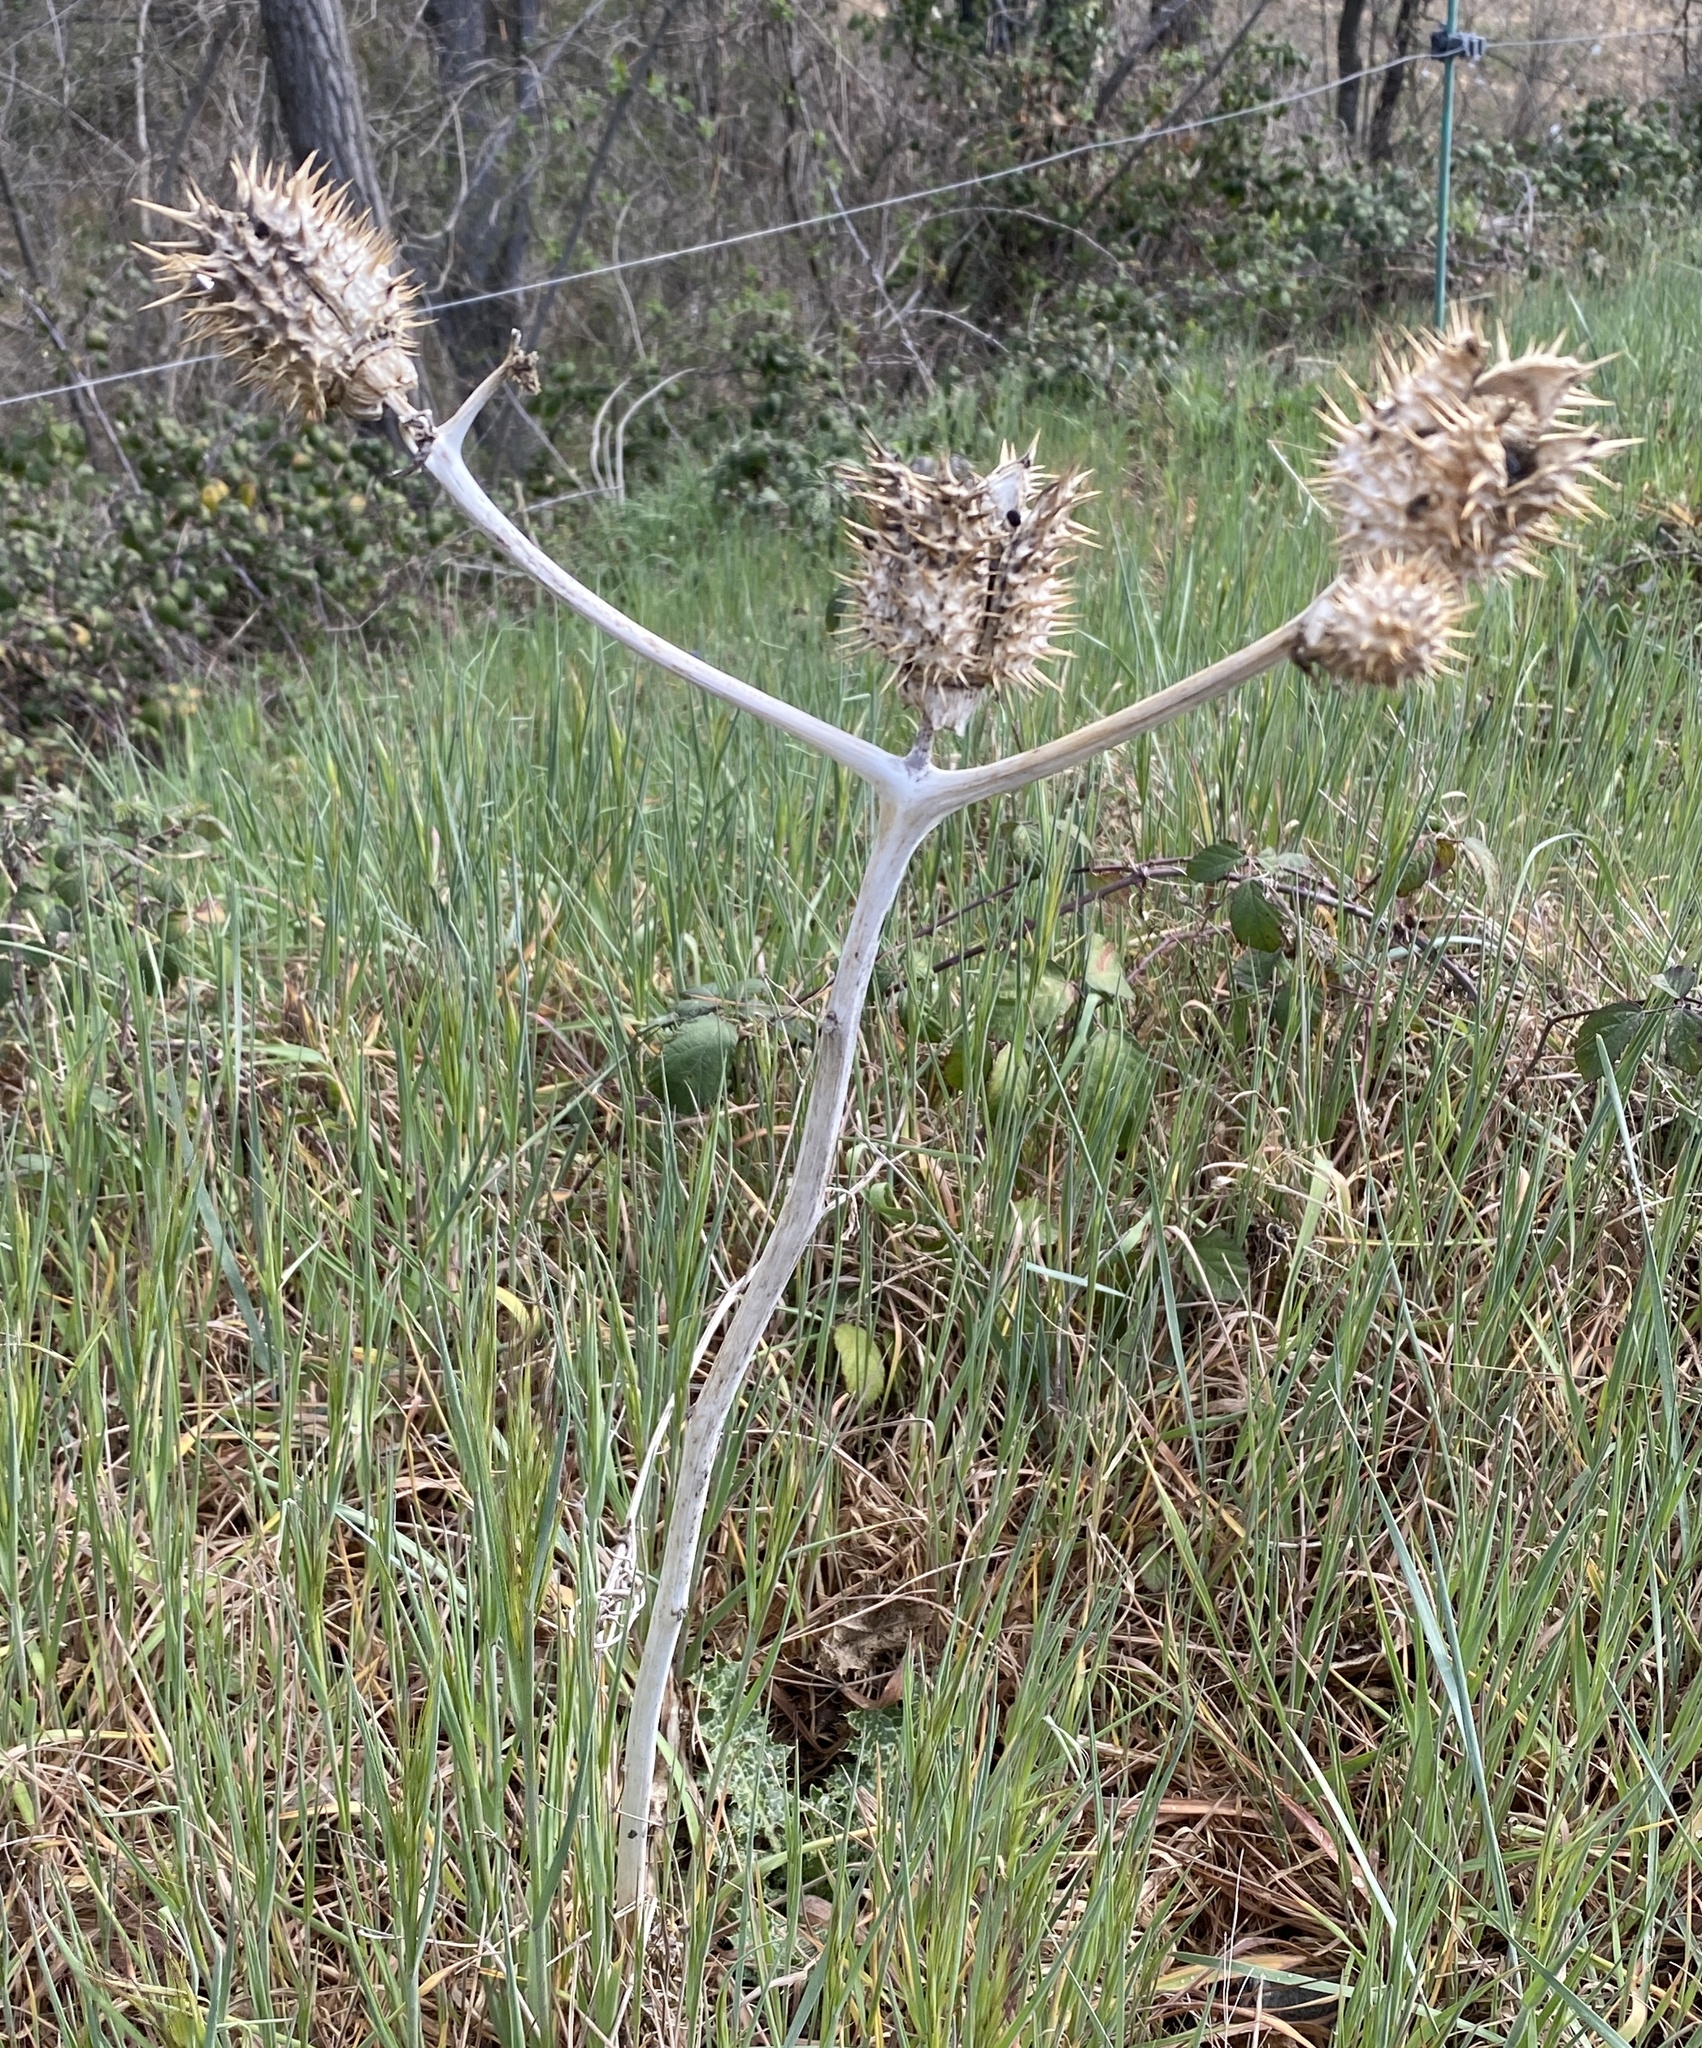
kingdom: Plantae
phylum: Tracheophyta
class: Magnoliopsida
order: Solanales
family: Solanaceae
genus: Datura
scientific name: Datura stramonium
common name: Thorn-apple
